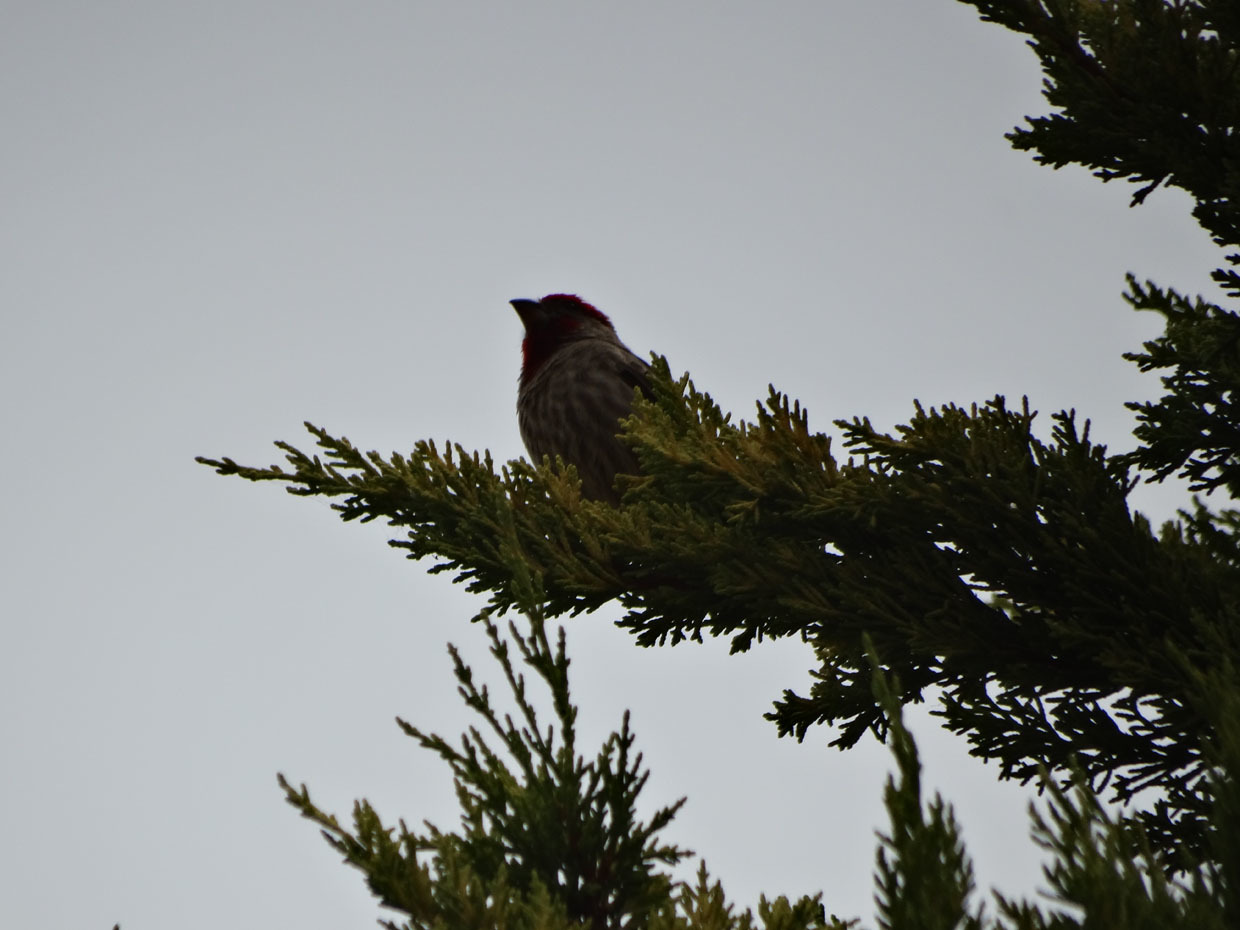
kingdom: Animalia
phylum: Chordata
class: Aves
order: Passeriformes
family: Fringillidae
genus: Haemorhous
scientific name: Haemorhous mexicanus
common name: House finch
